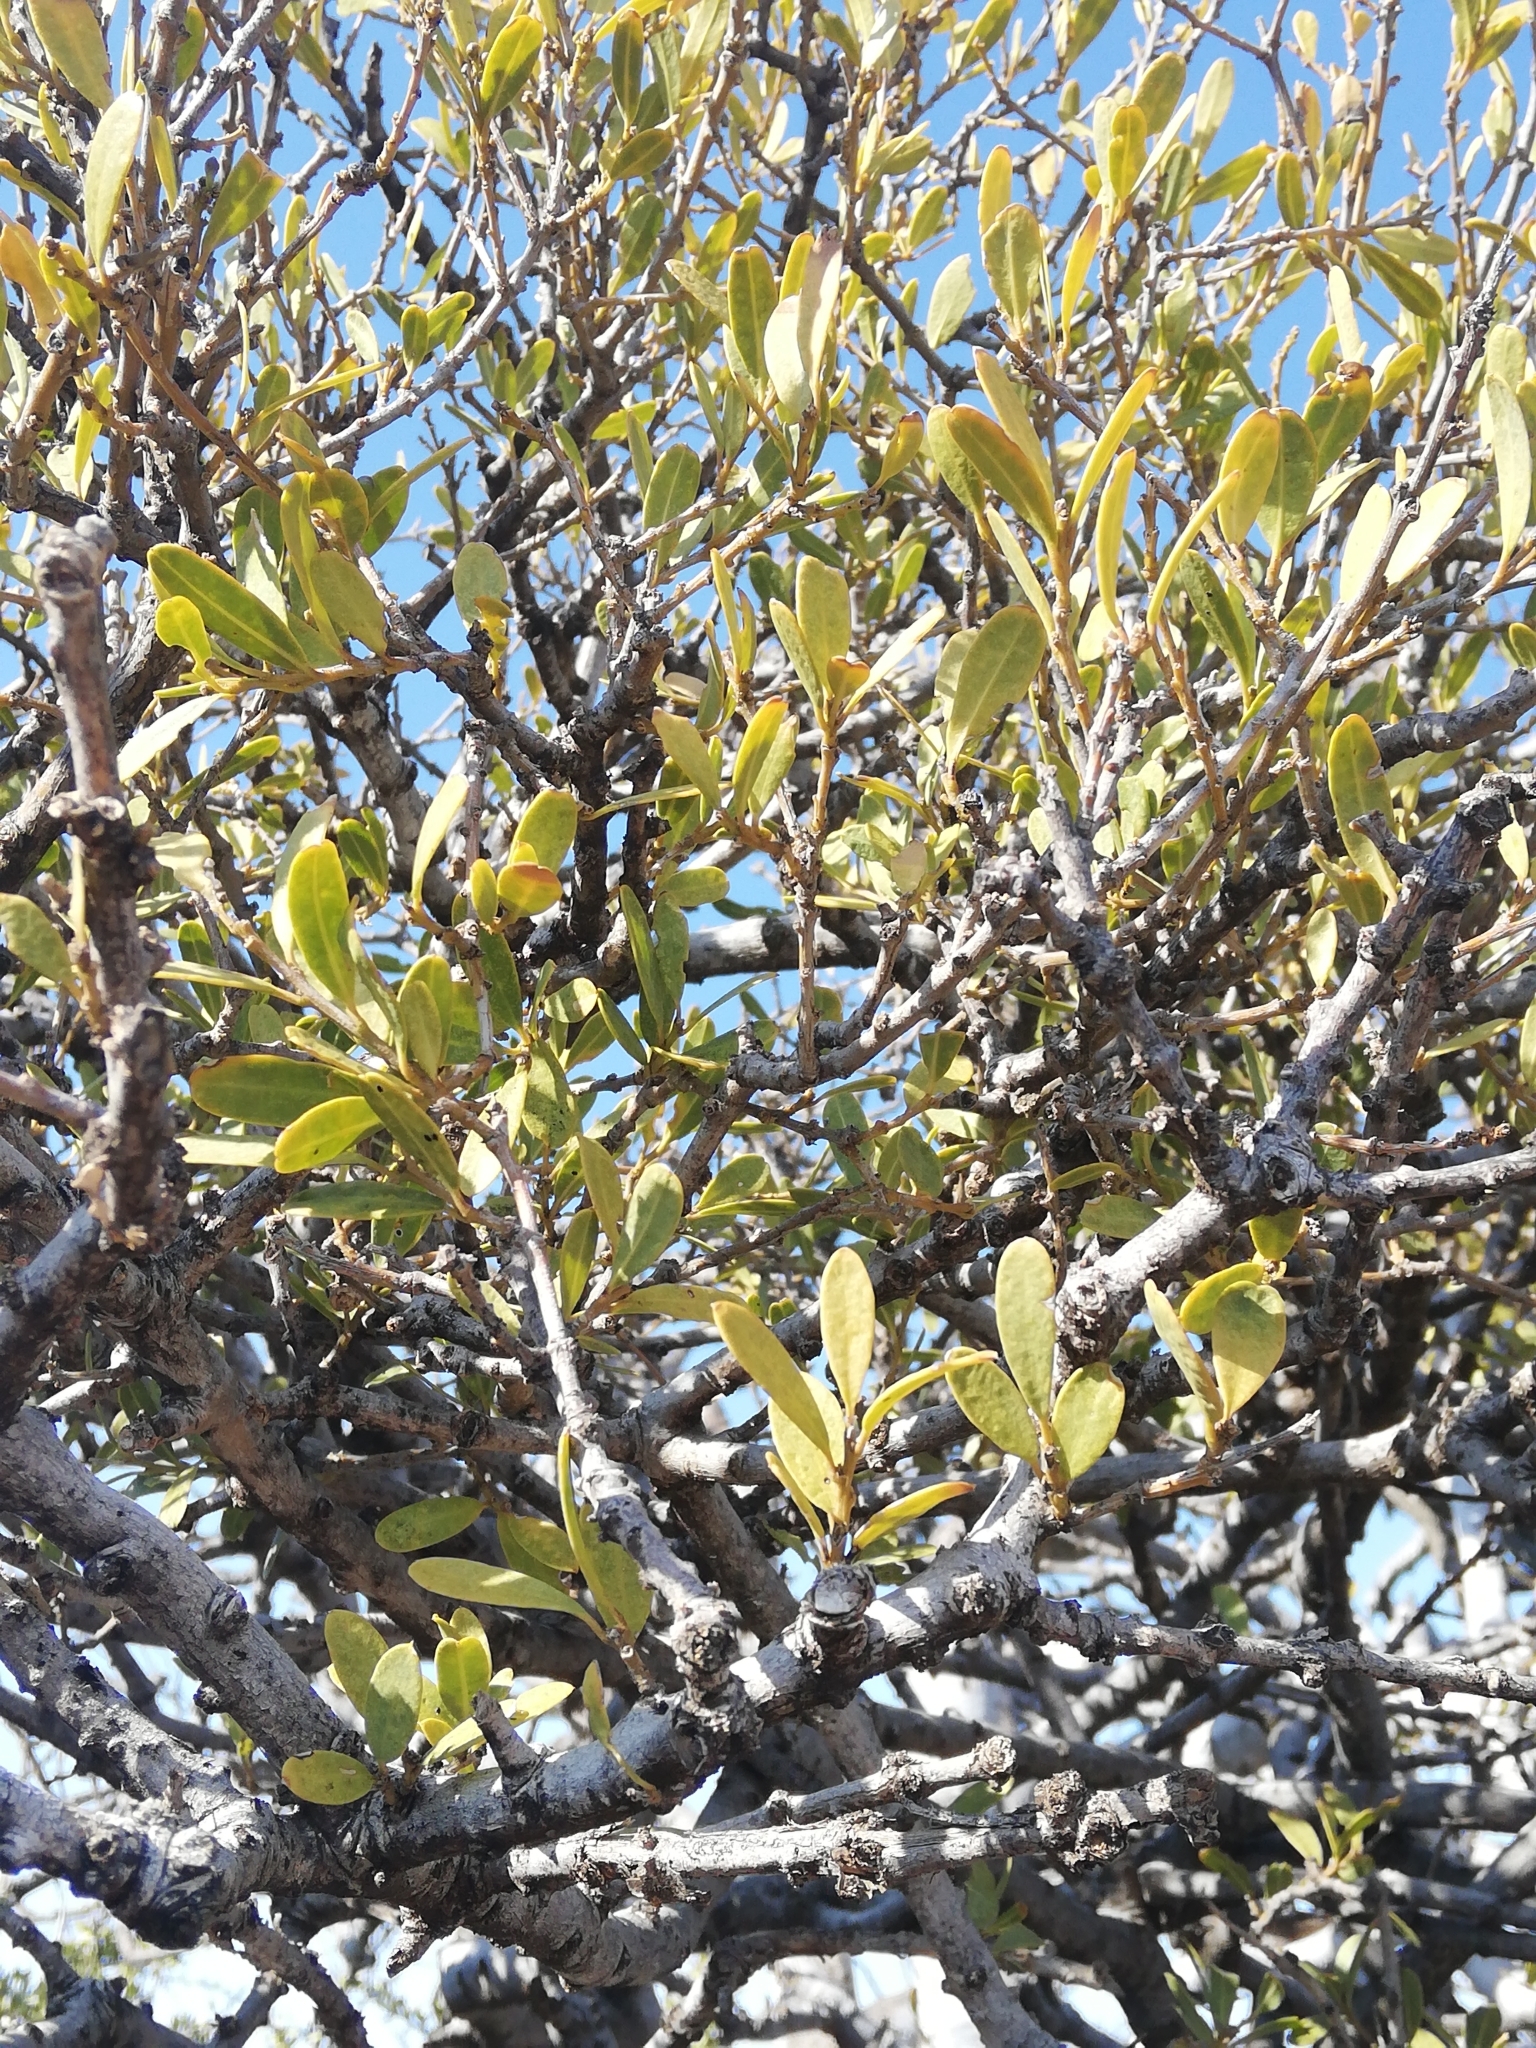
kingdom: Plantae
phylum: Tracheophyta
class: Magnoliopsida
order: Brassicales
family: Capparaceae
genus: Boscia
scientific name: Boscia oleoides
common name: Karoo shepherd tree
